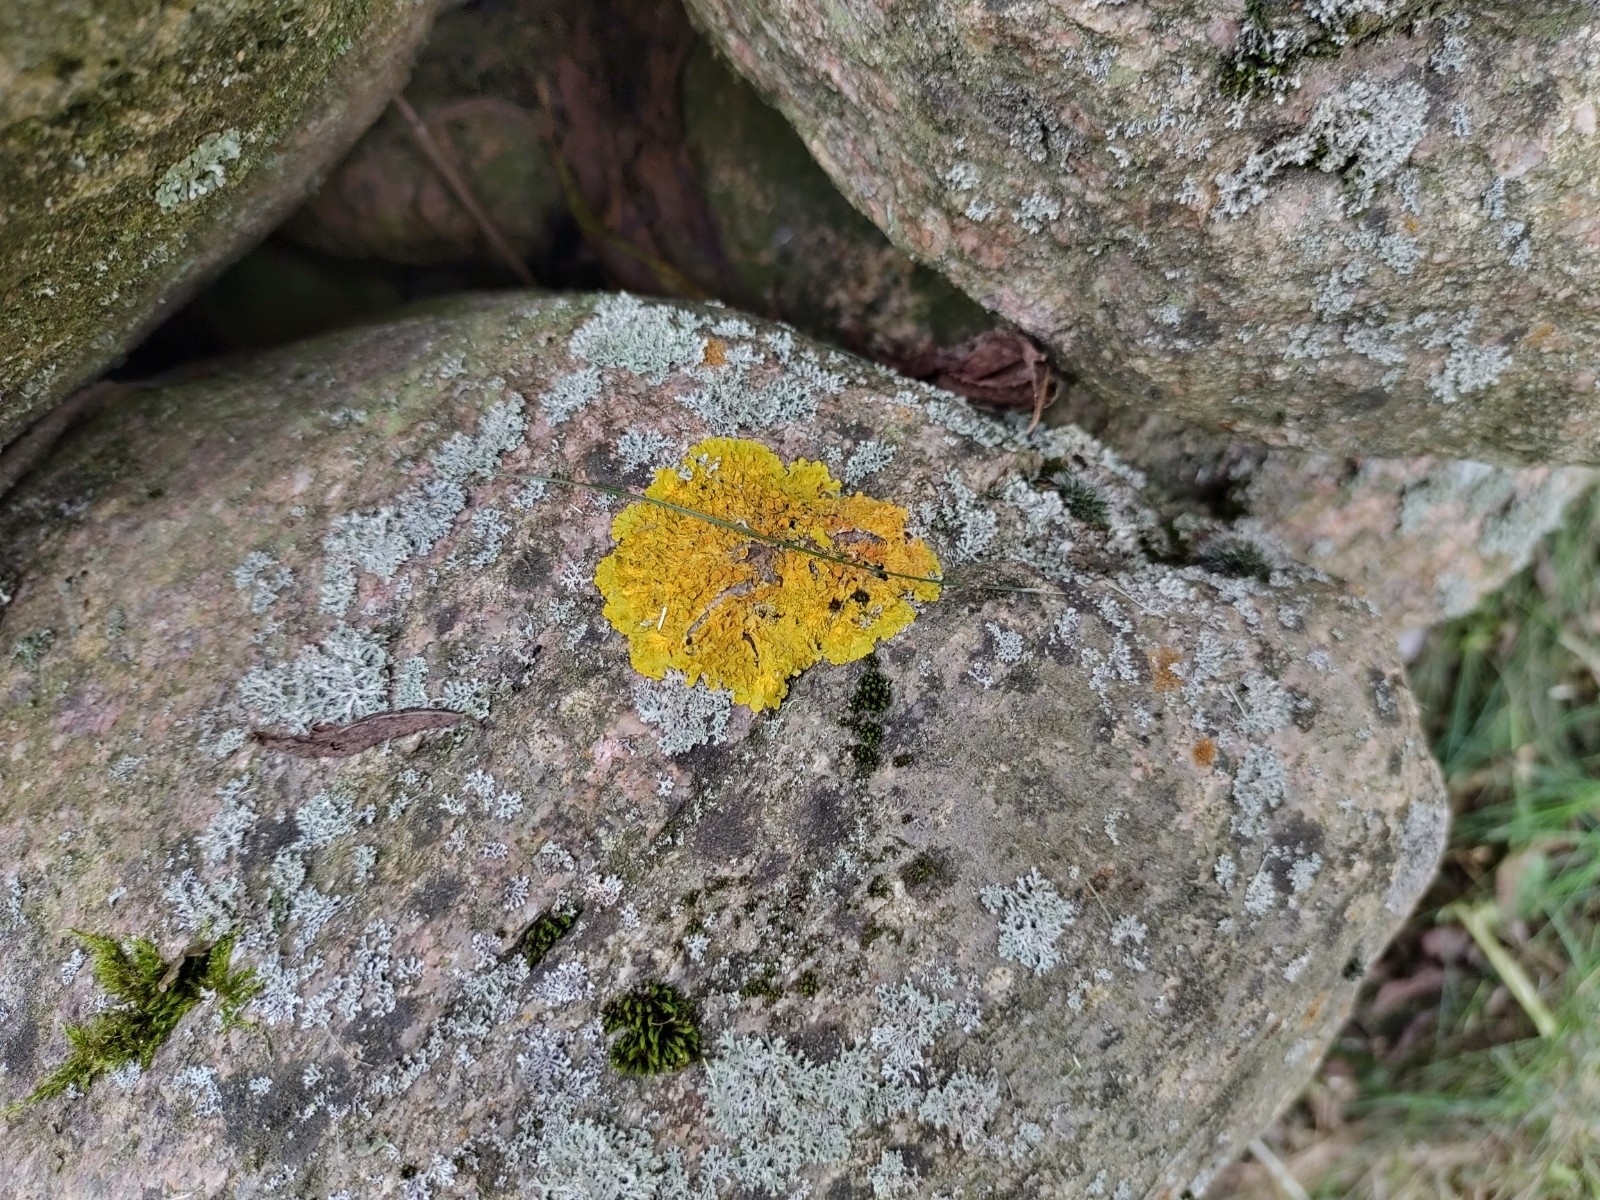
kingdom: Fungi
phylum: Ascomycota
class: Lecanoromycetes
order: Teloschistales
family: Teloschistaceae
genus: Xanthoria
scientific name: Xanthoria parietina
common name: Common orange lichen
